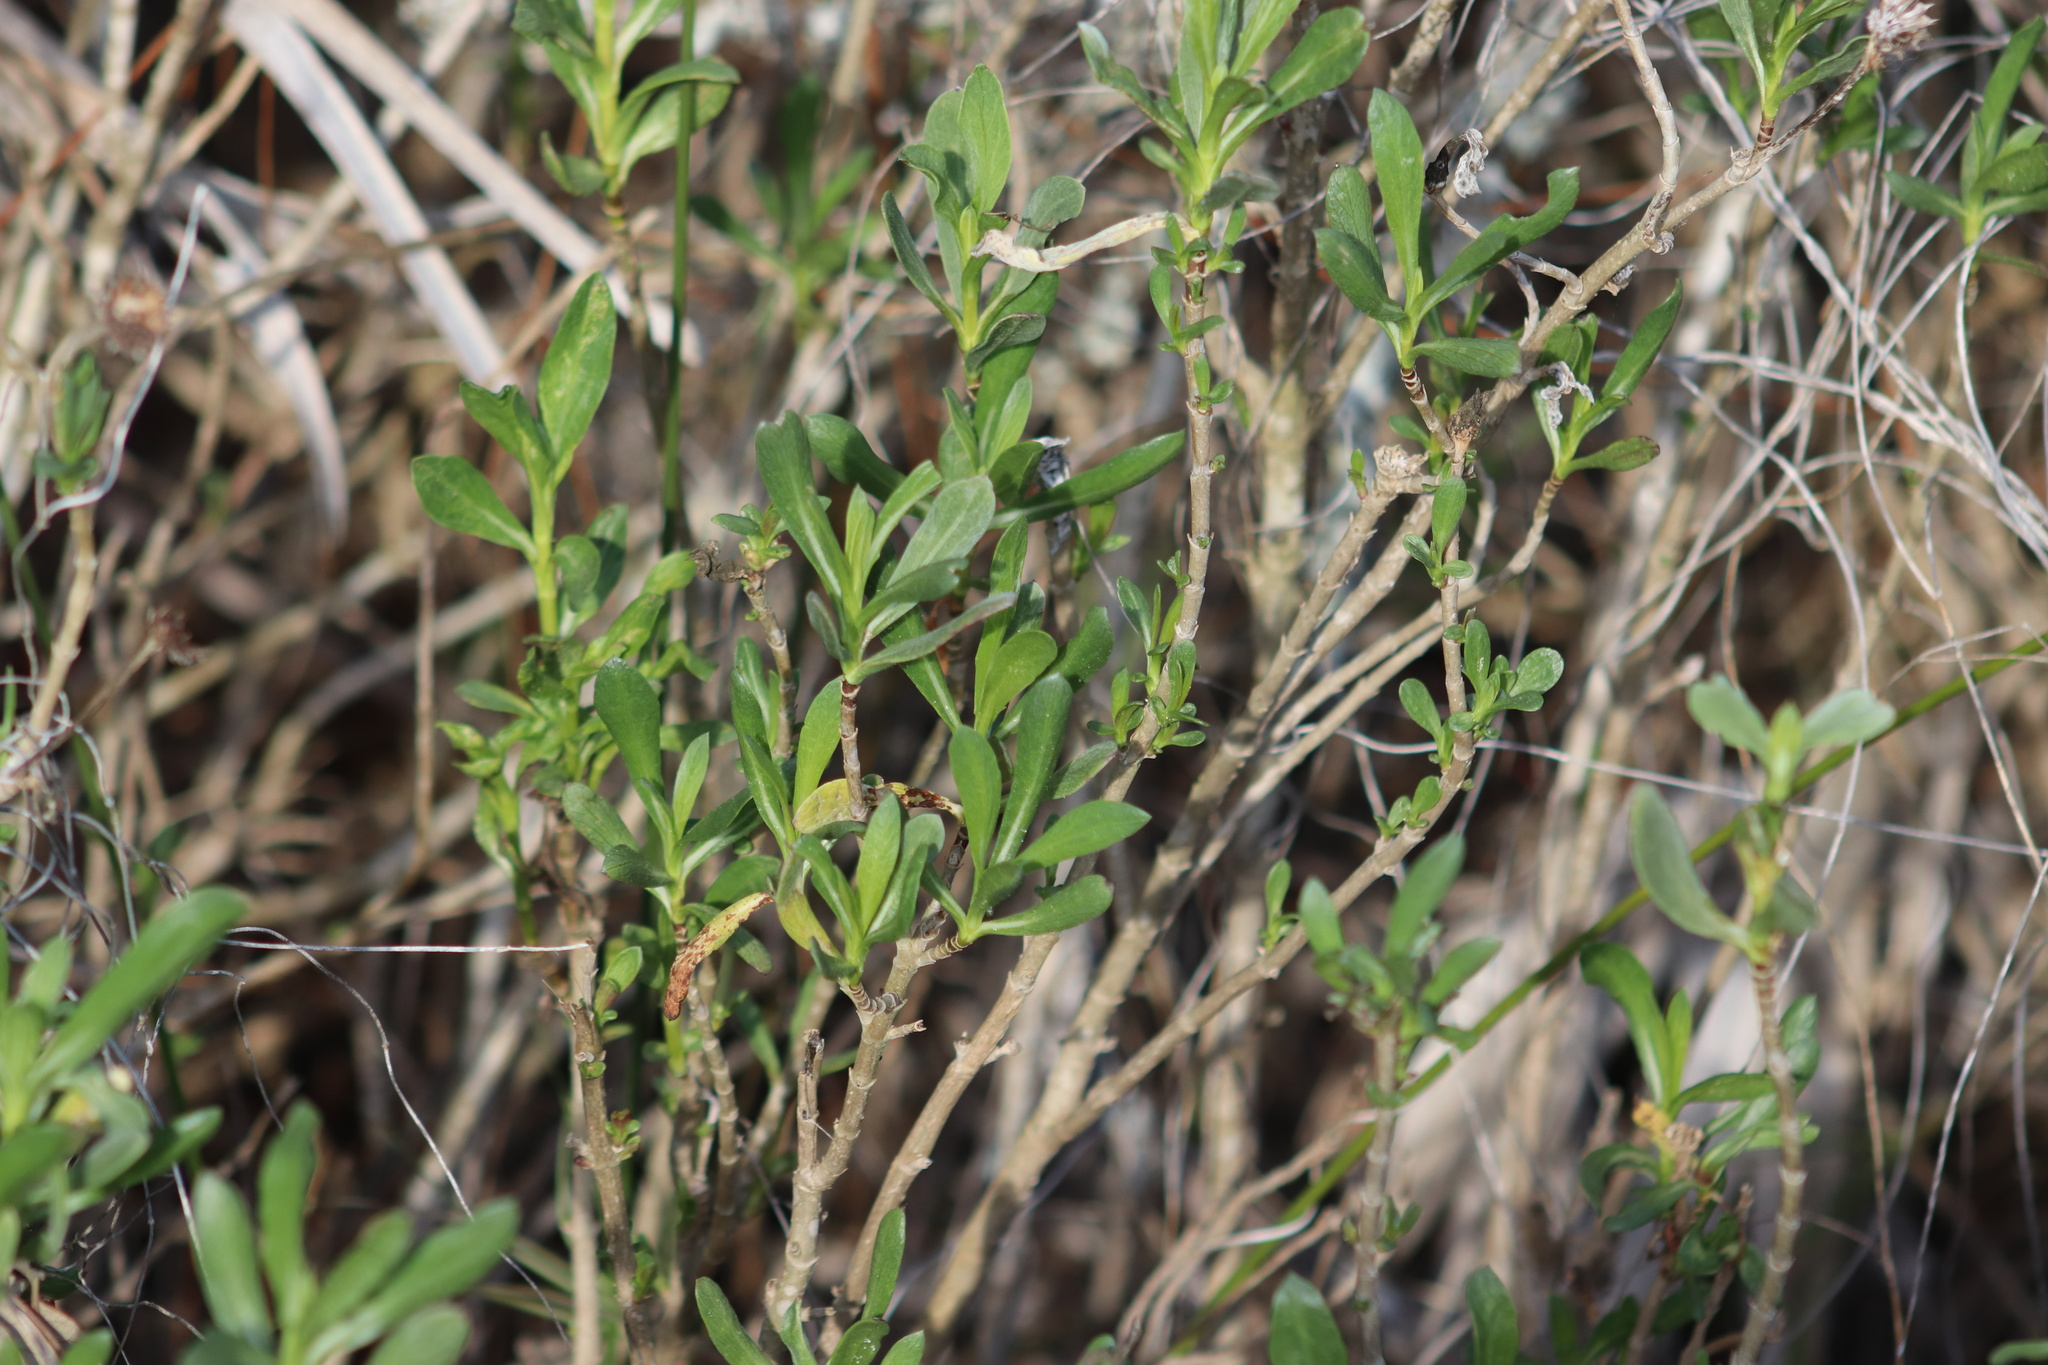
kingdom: Plantae
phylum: Tracheophyta
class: Magnoliopsida
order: Asterales
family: Asteraceae
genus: Borrichia
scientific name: Borrichia frutescens
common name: Sea oxeye
